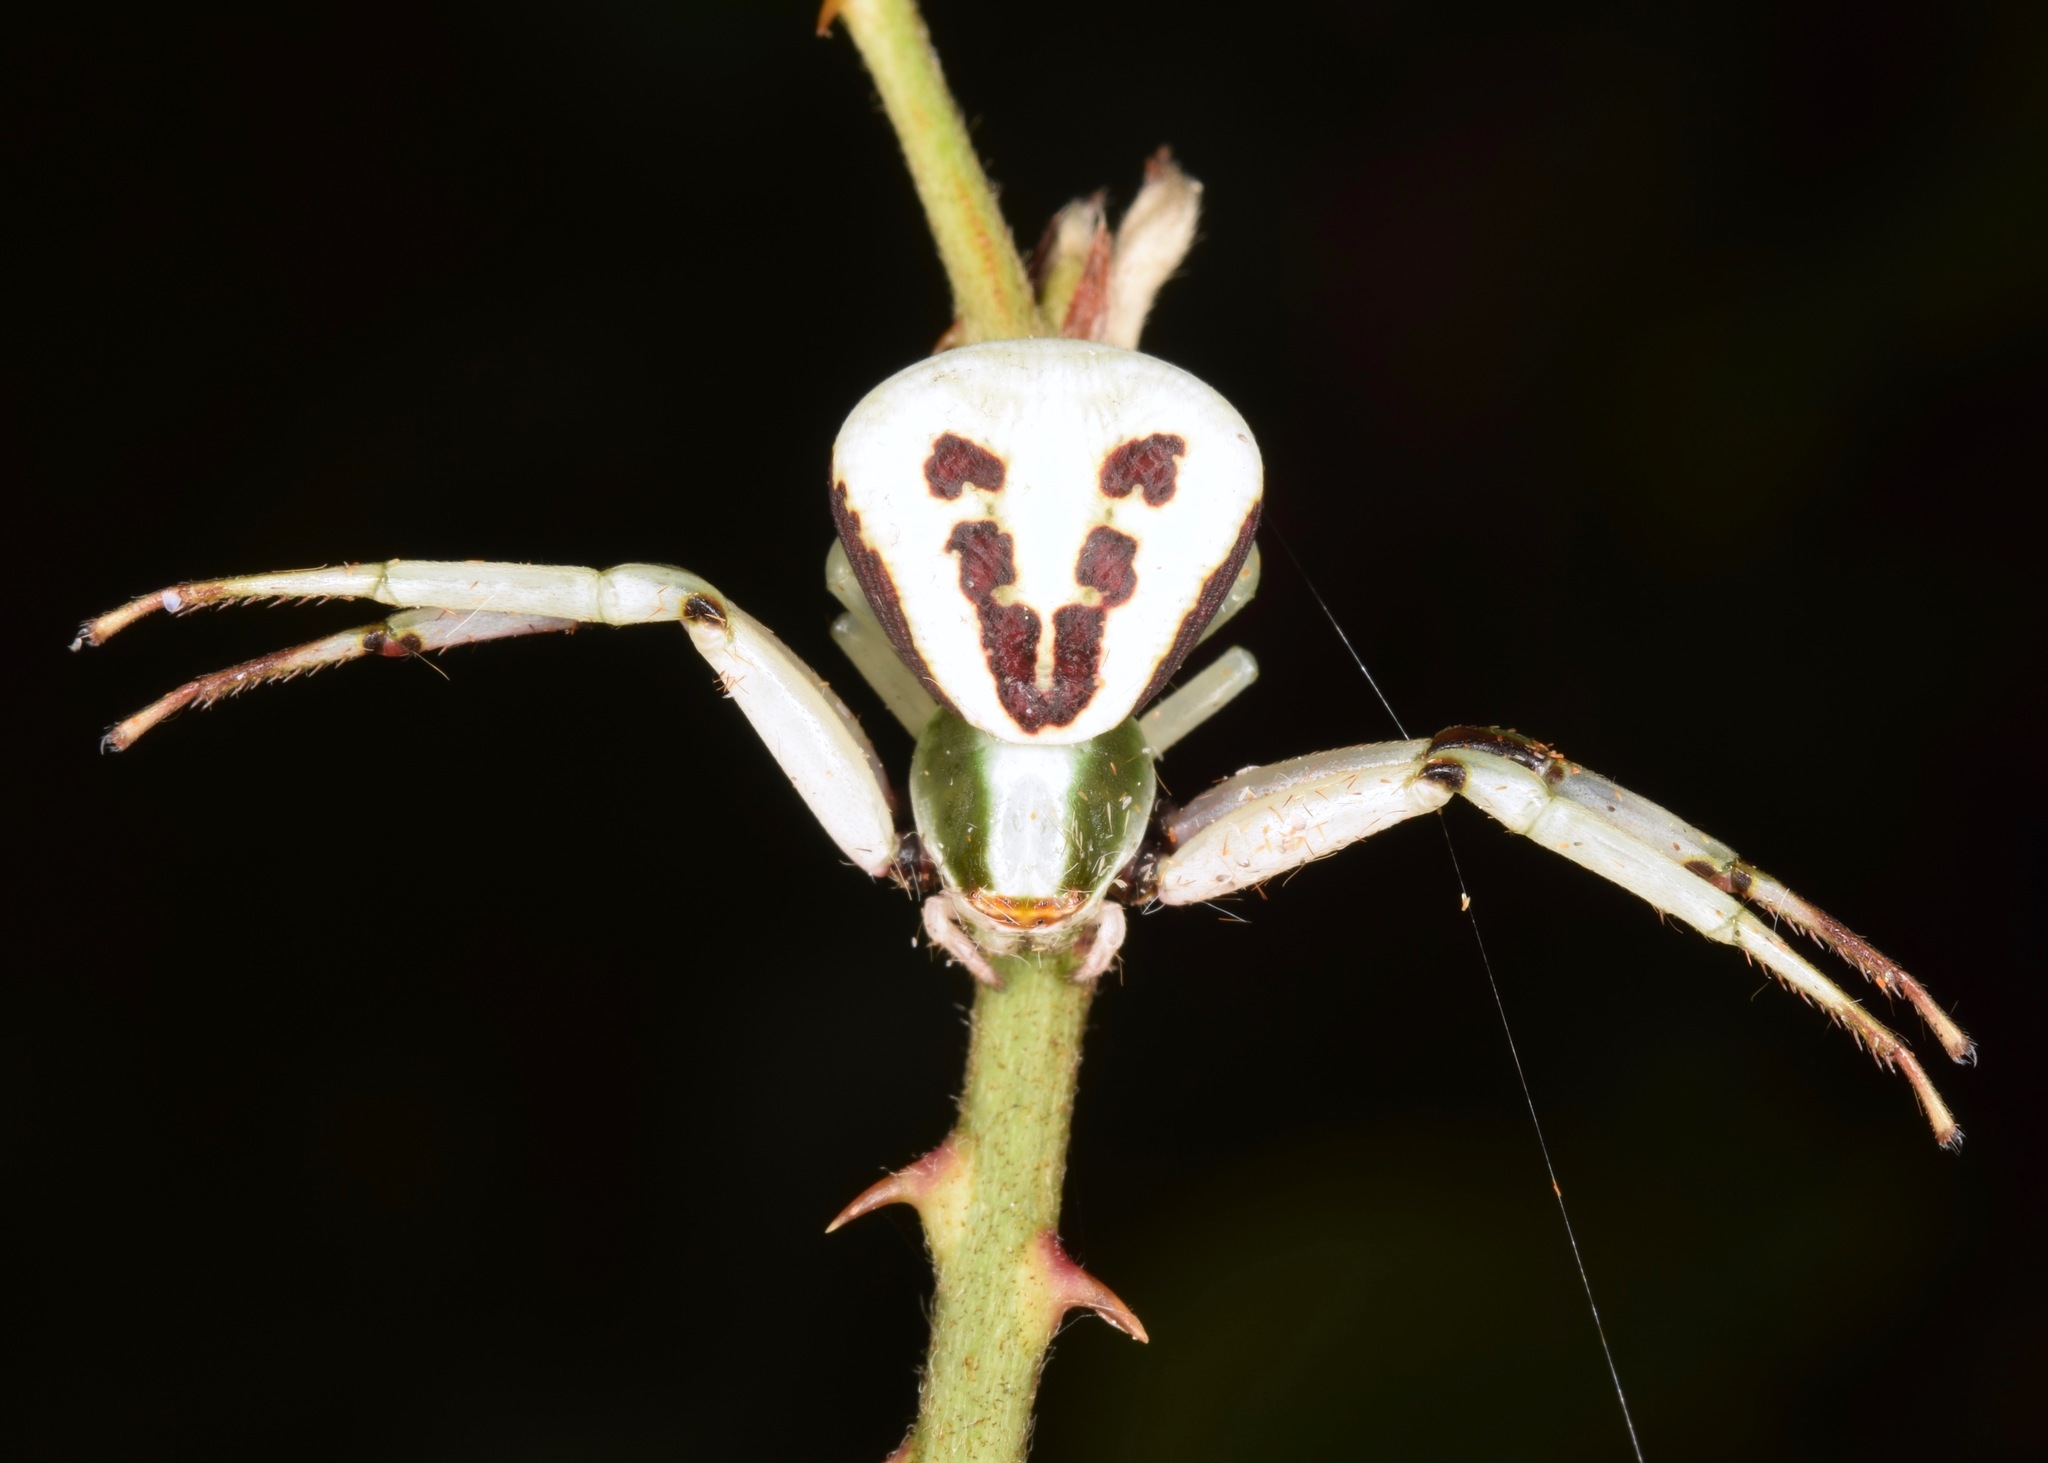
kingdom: Animalia
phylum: Arthropoda
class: Arachnida
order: Araneae
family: Thomisidae
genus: Misumenoides
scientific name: Misumenoides formosipes
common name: White-banded crab spider
